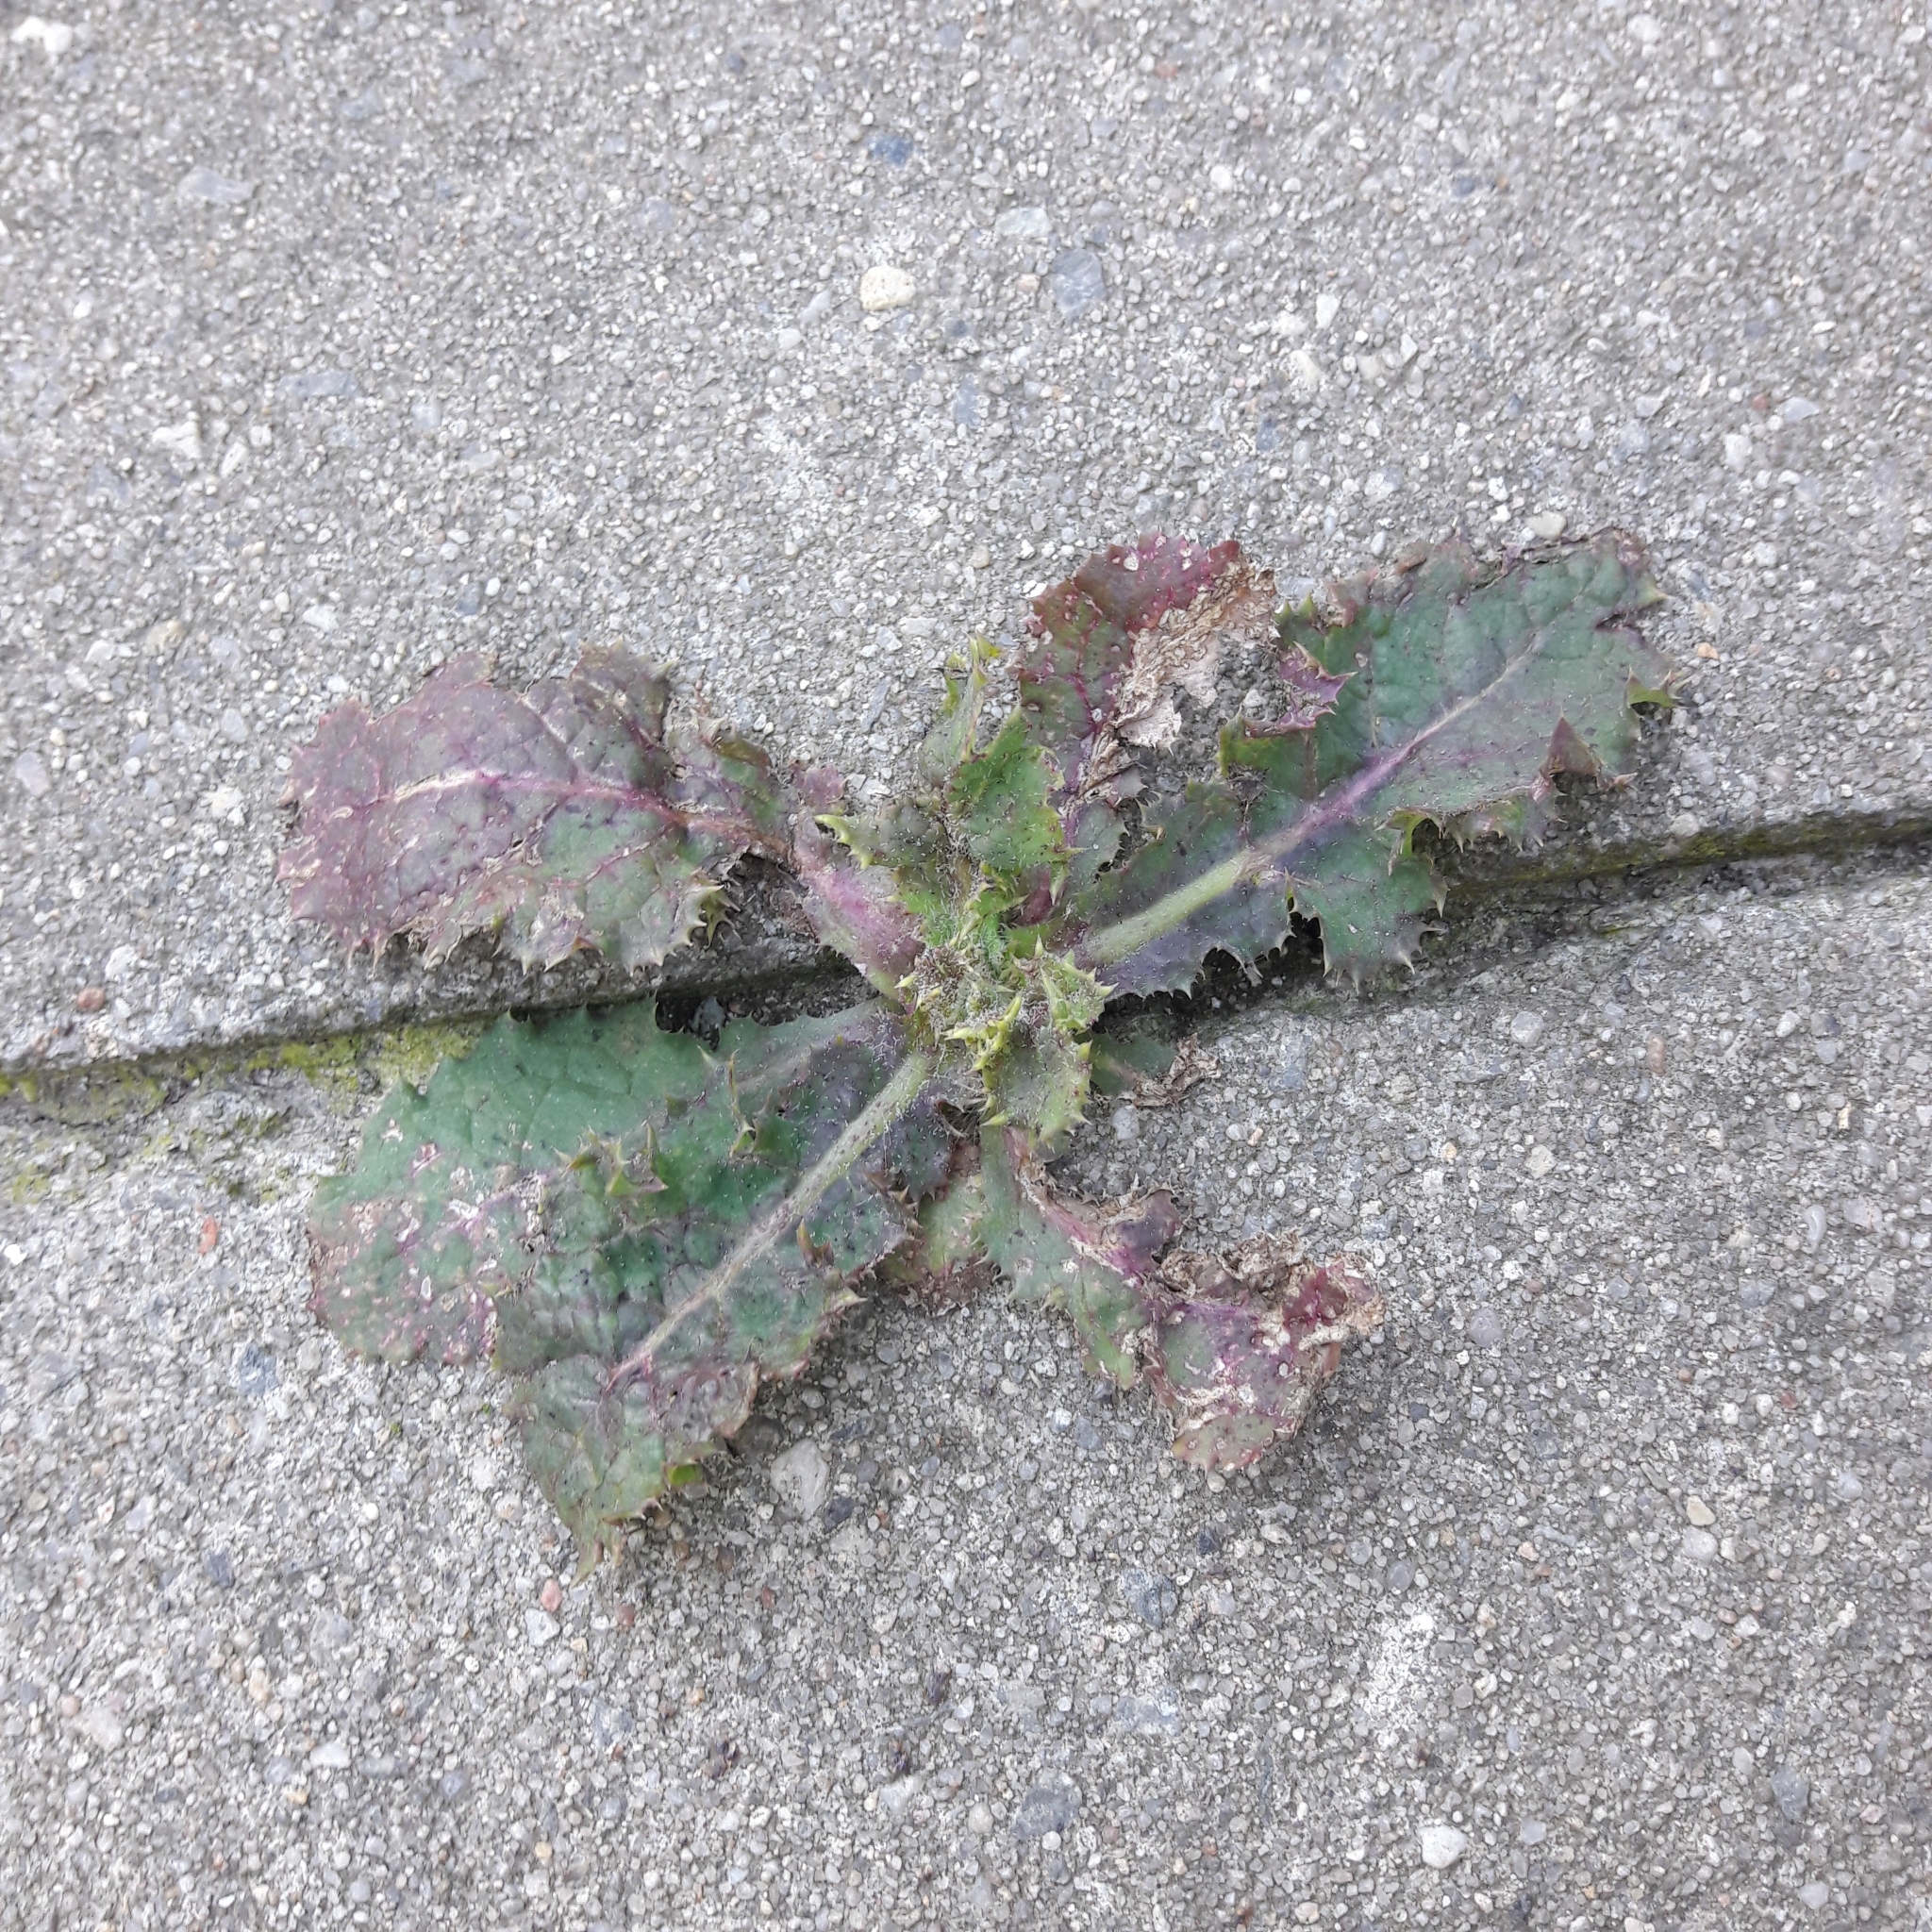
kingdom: Plantae
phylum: Tracheophyta
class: Magnoliopsida
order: Asterales
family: Asteraceae
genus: Sonchus
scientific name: Sonchus asper
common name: Prickly sow-thistle
